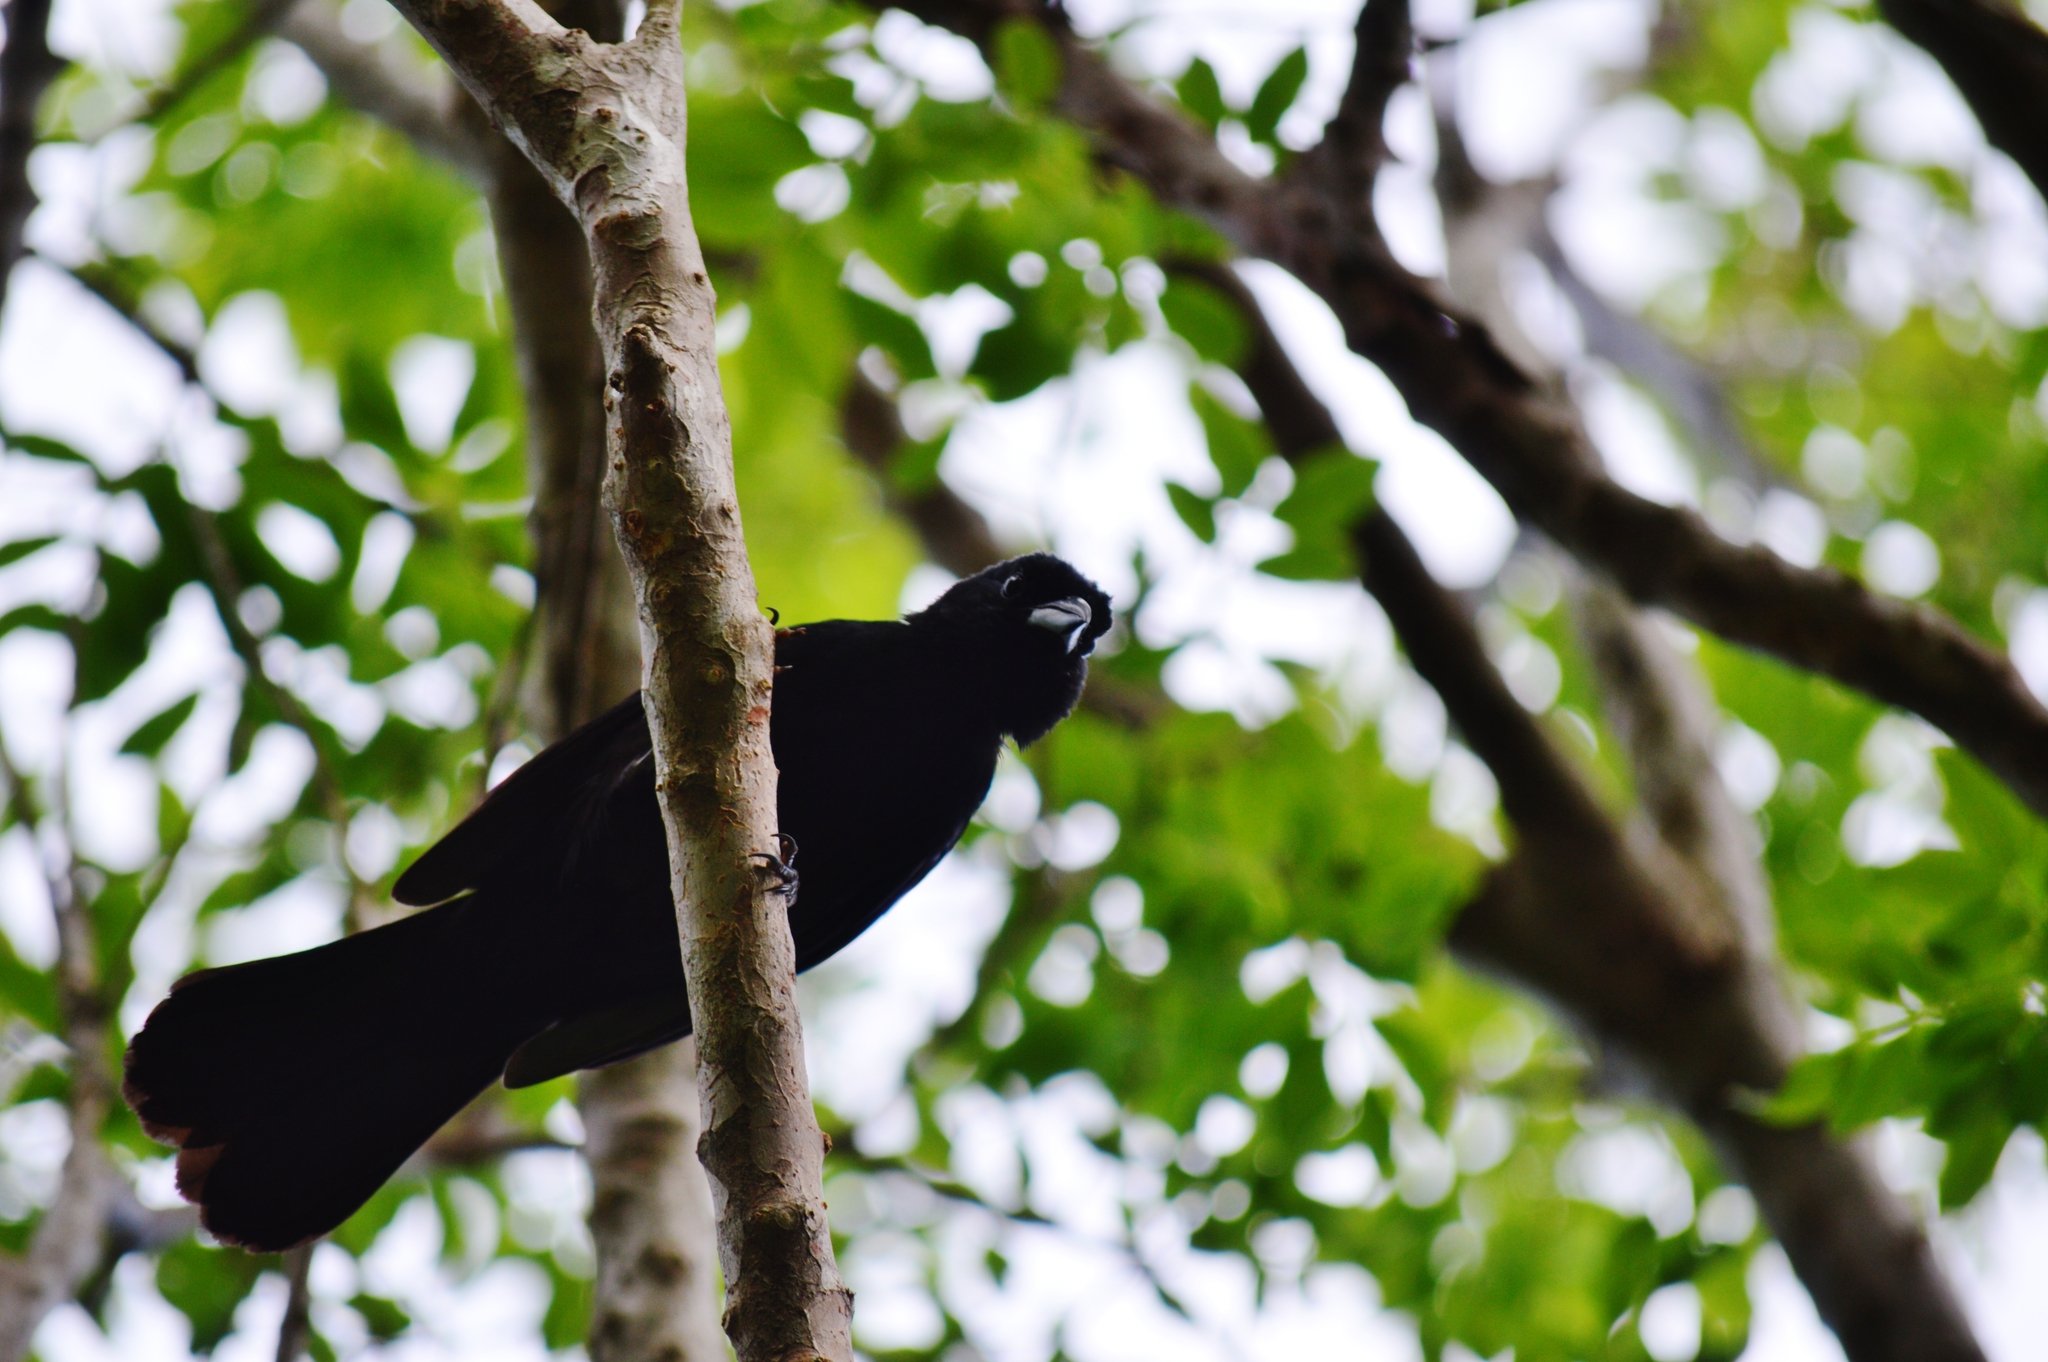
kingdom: Animalia
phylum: Chordata
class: Aves
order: Passeriformes
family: Thraupidae
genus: Tachyphonus
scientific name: Tachyphonus rufus
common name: White-lined tanager
